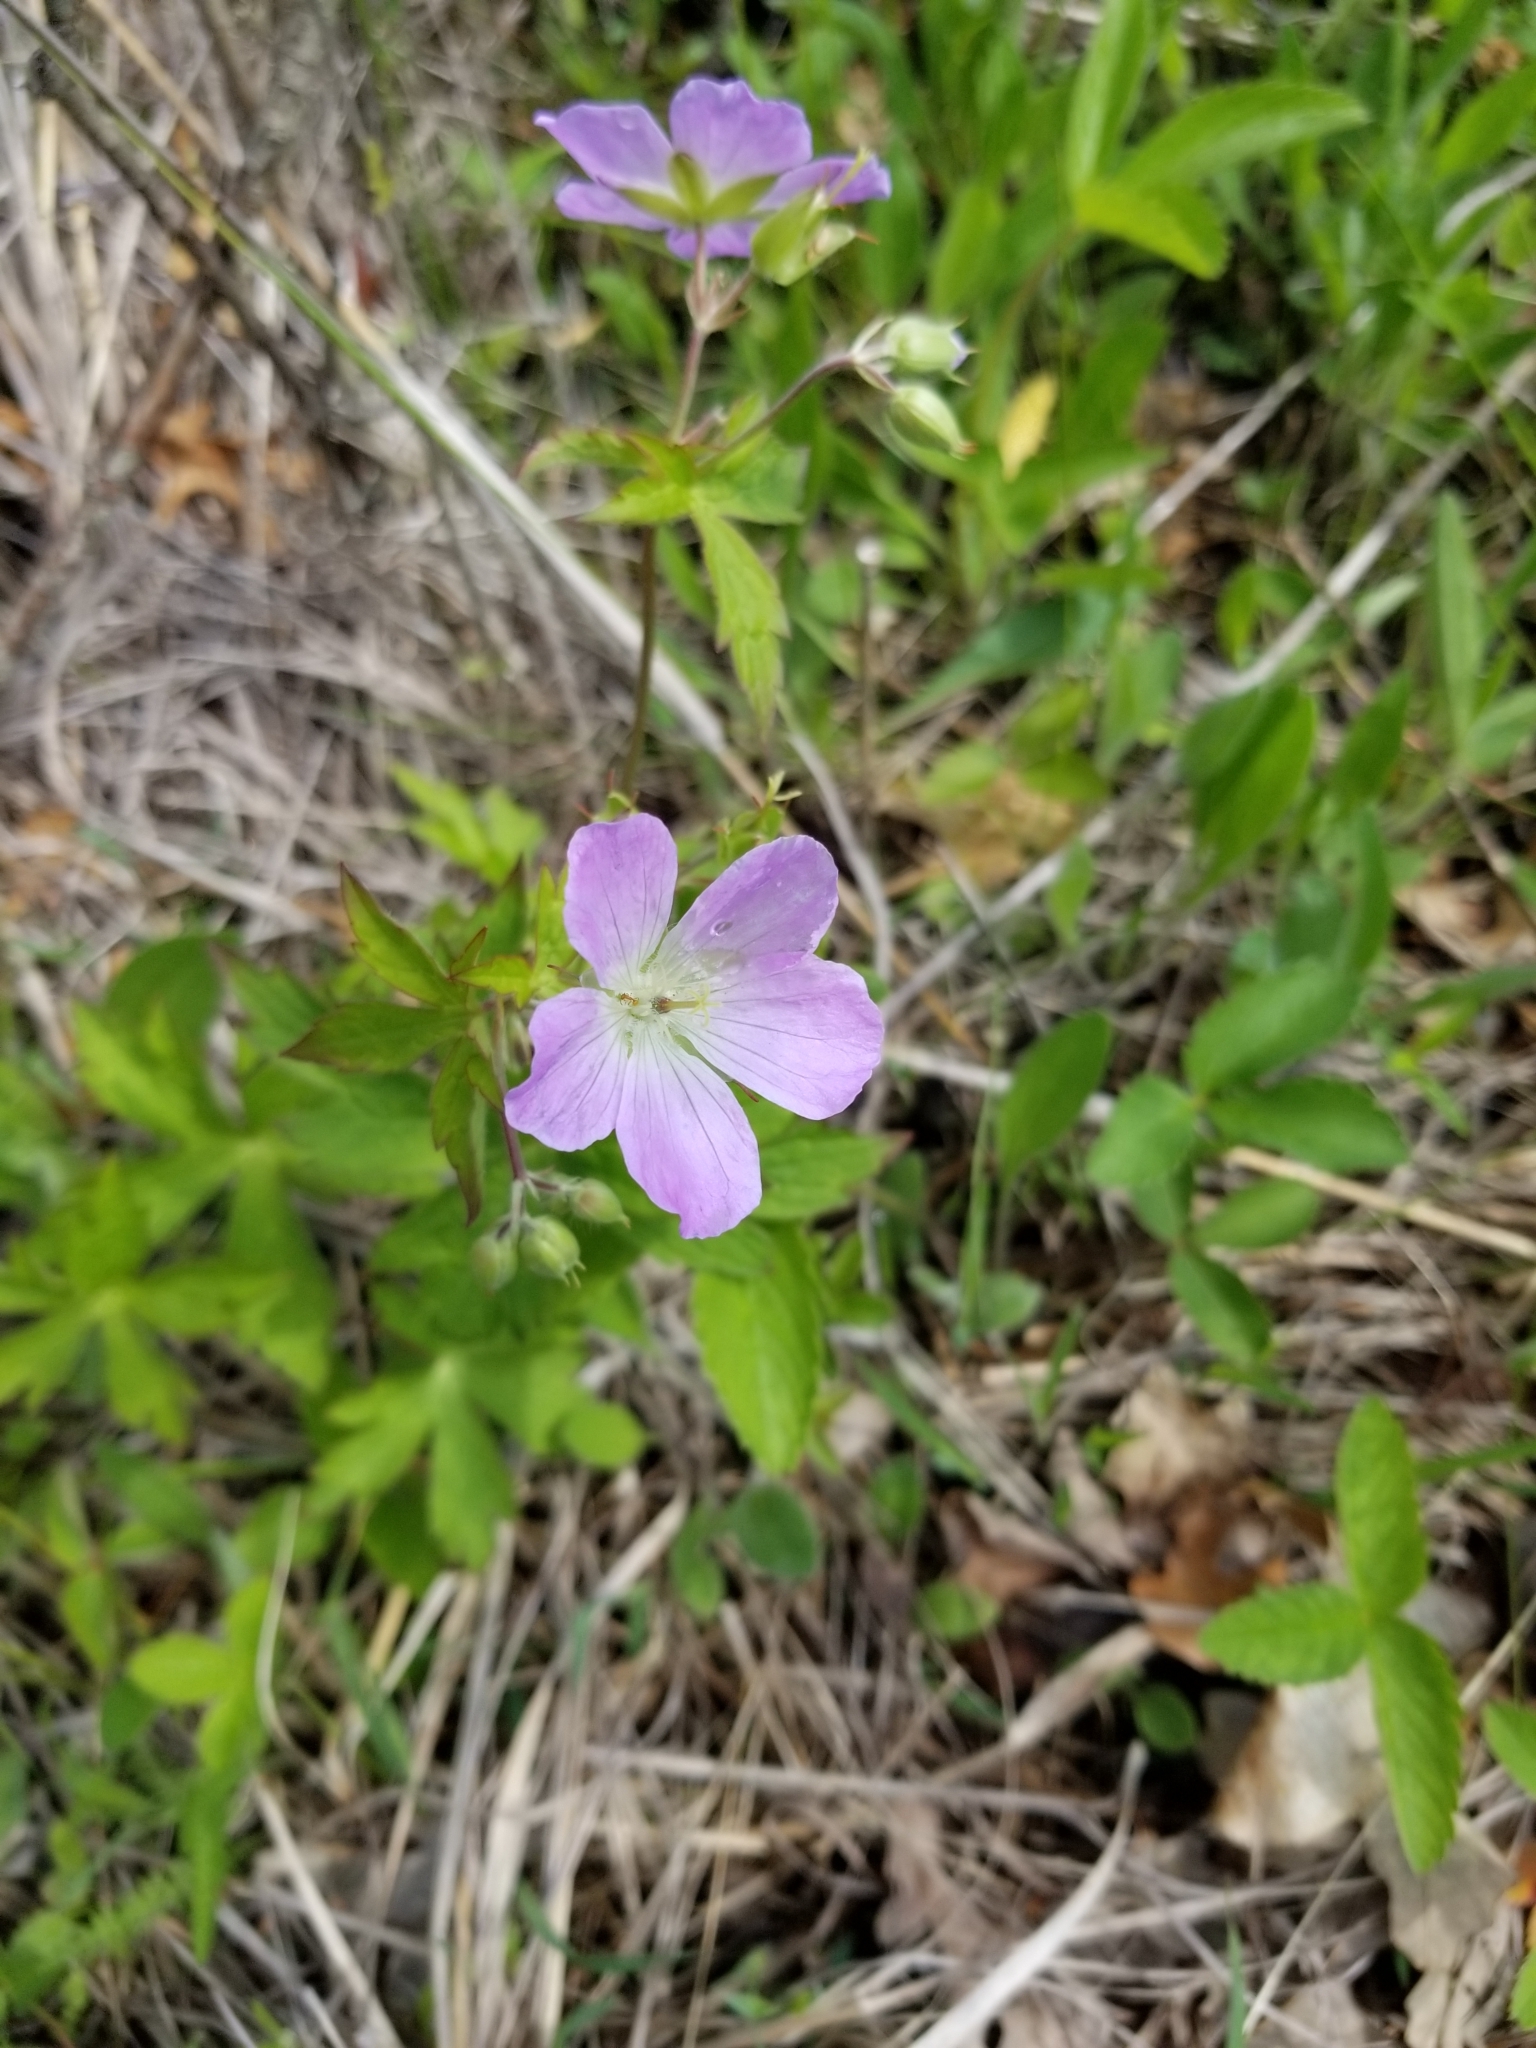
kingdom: Plantae
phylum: Tracheophyta
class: Magnoliopsida
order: Geraniales
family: Geraniaceae
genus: Geranium
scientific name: Geranium maculatum
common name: Spotted geranium
